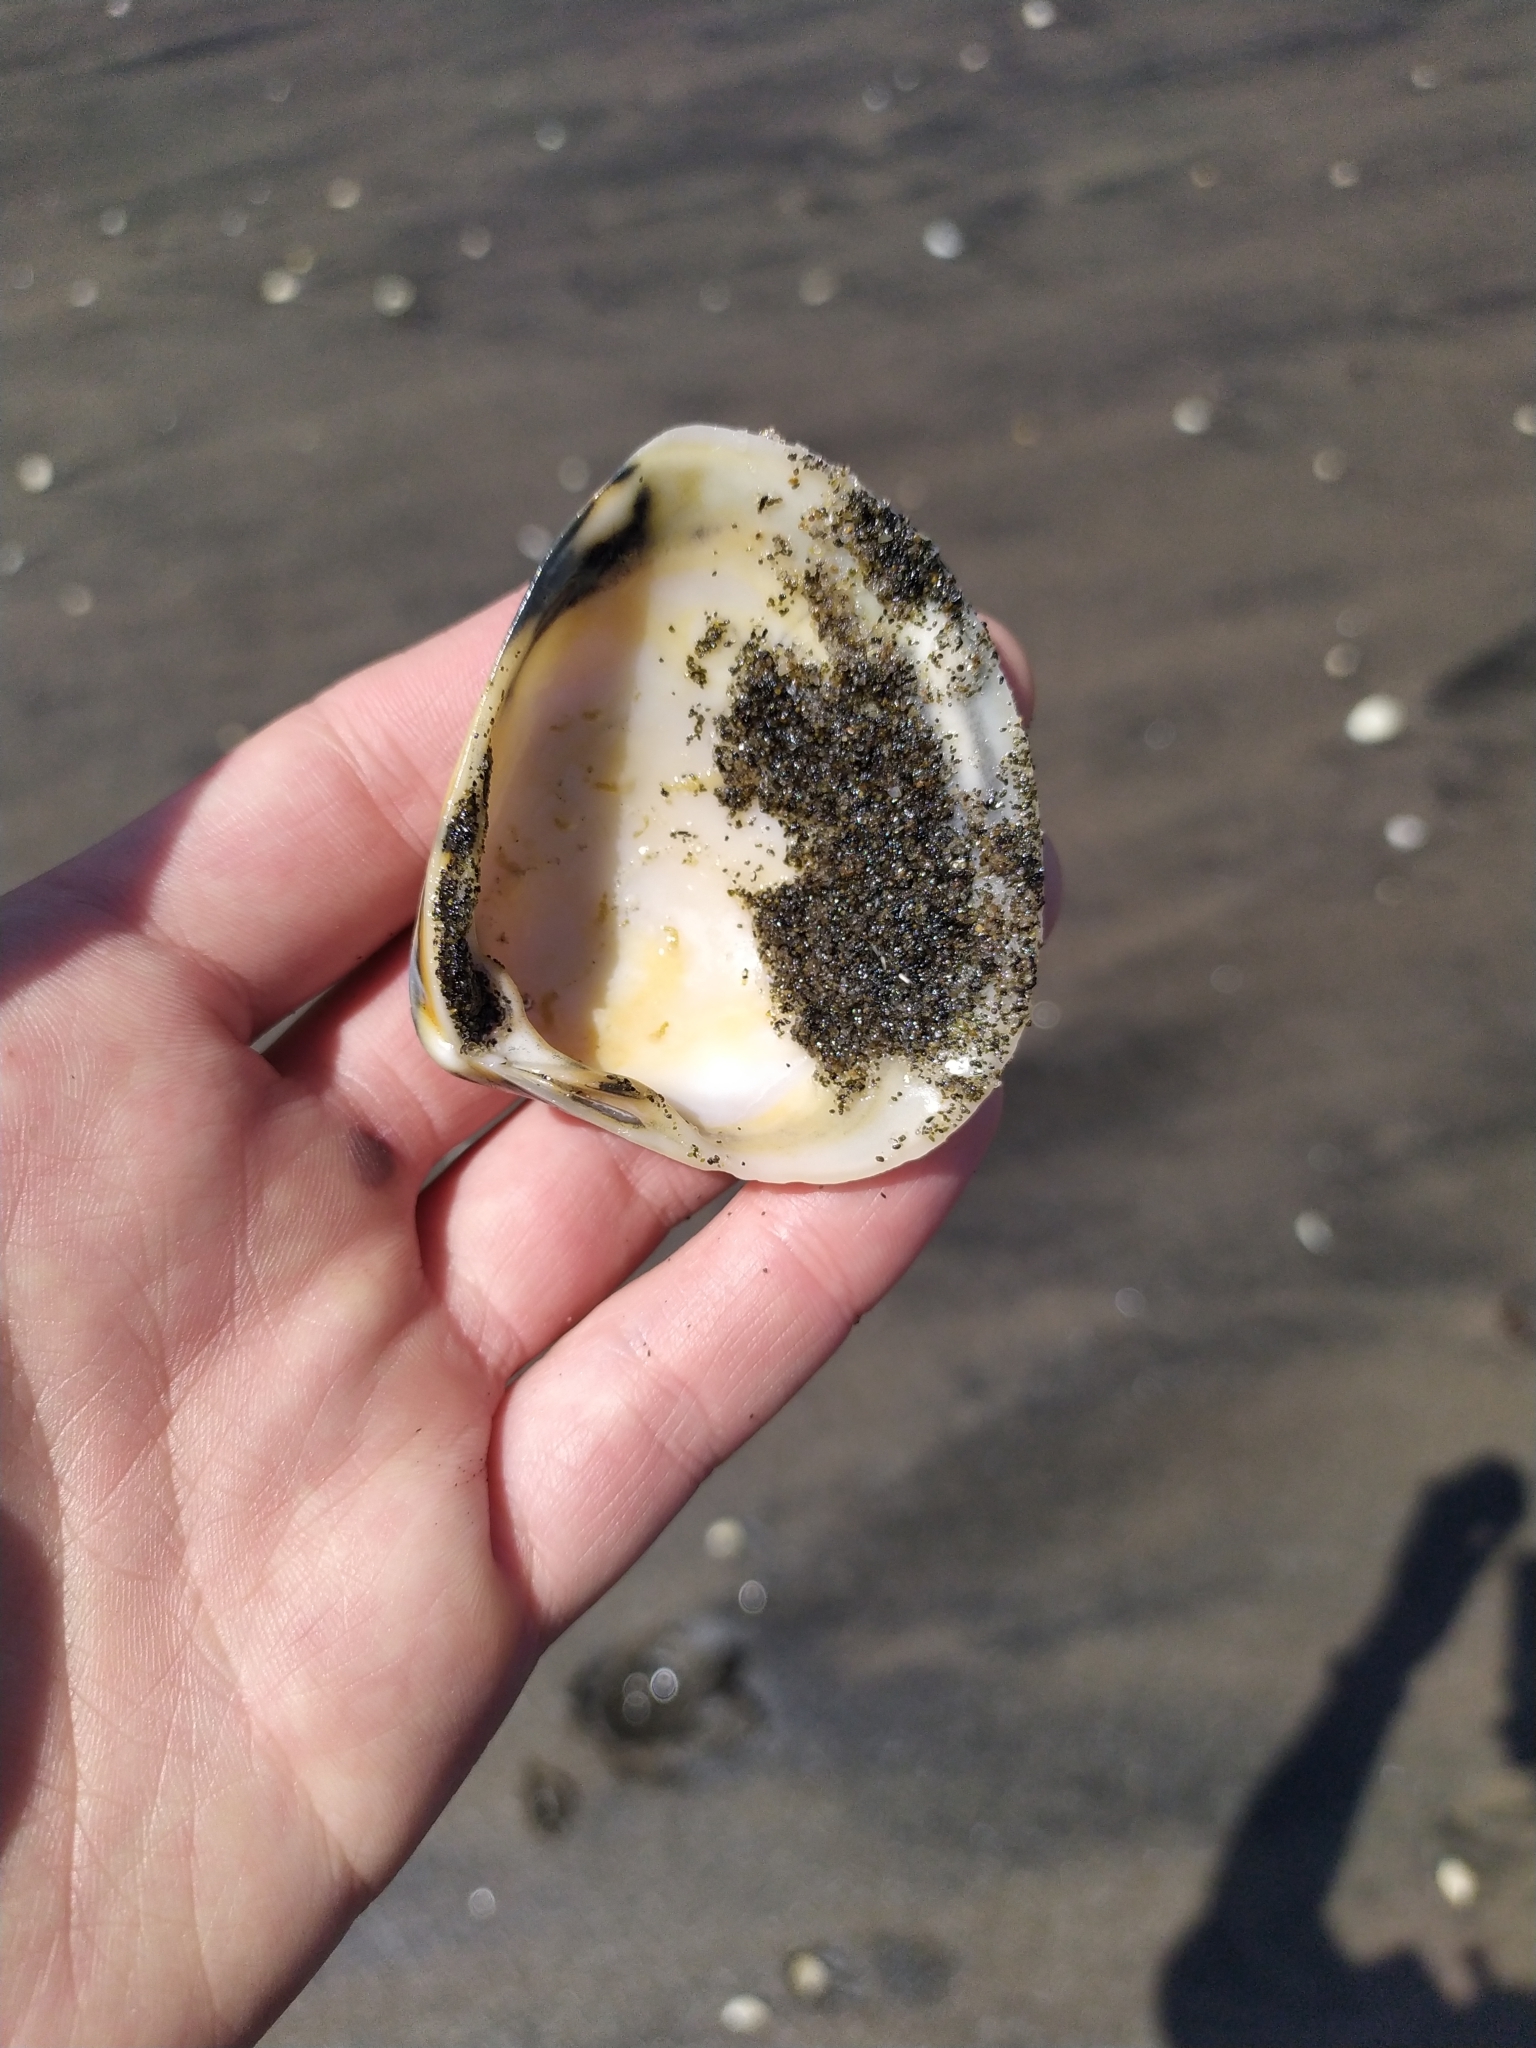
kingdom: Animalia
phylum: Mollusca
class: Bivalvia
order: Venerida
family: Mactridae
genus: Spisula
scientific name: Spisula murchisoni
